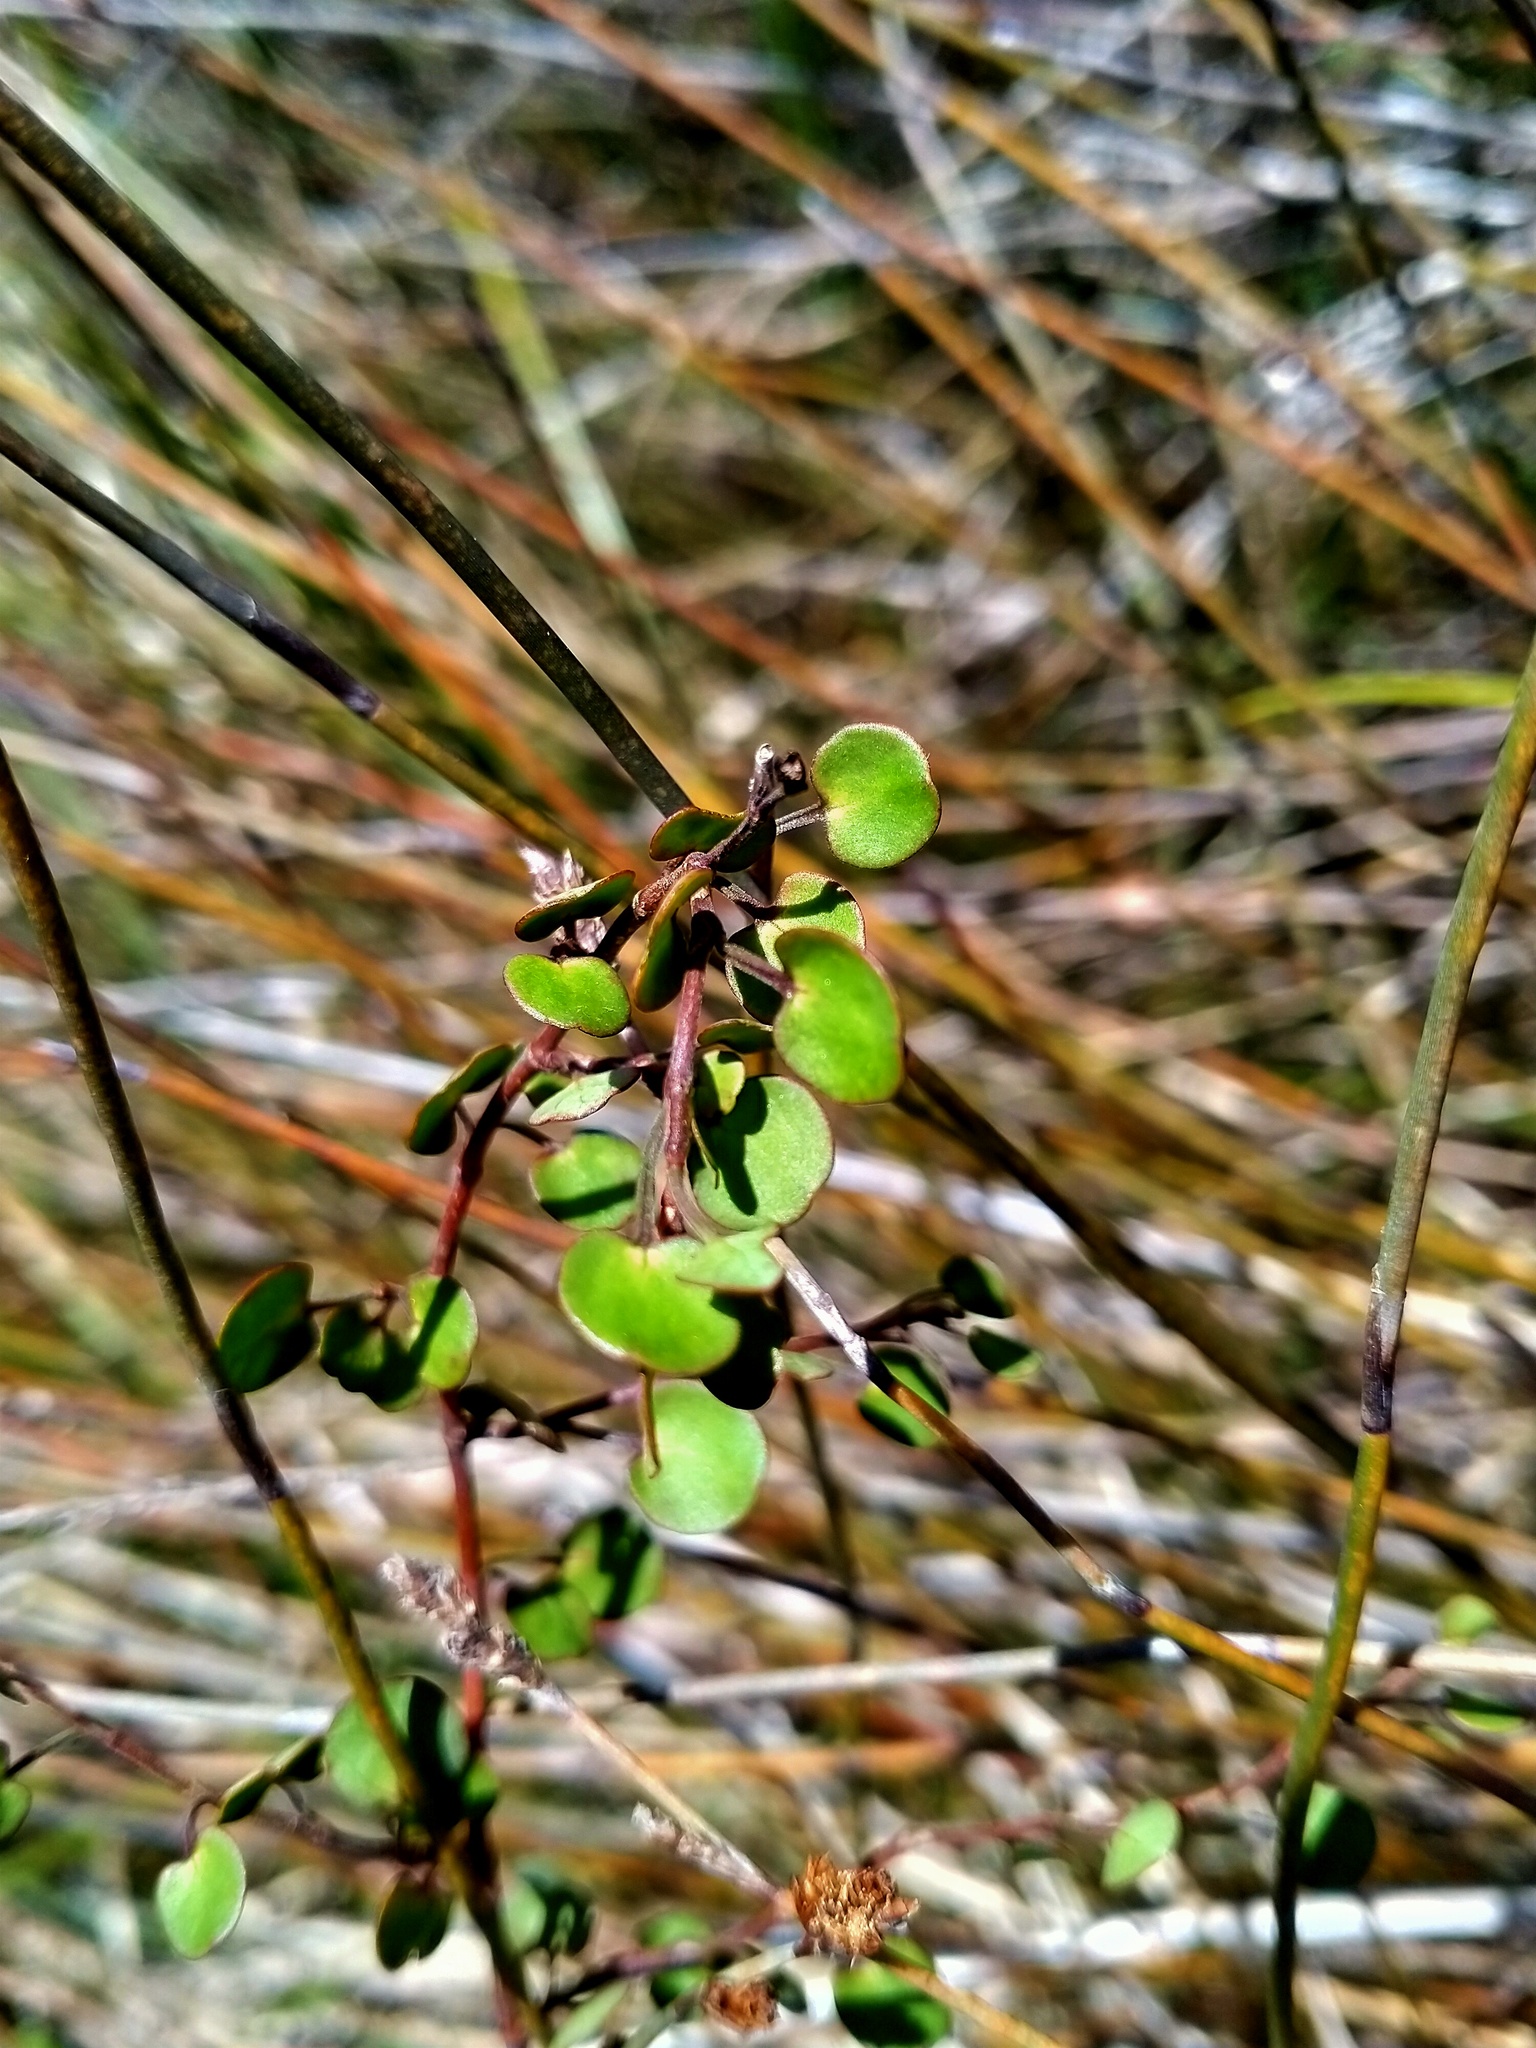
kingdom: Plantae
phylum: Tracheophyta
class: Magnoliopsida
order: Caryophyllales
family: Polygonaceae
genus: Muehlenbeckia
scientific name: Muehlenbeckia complexa
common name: Wireplant
